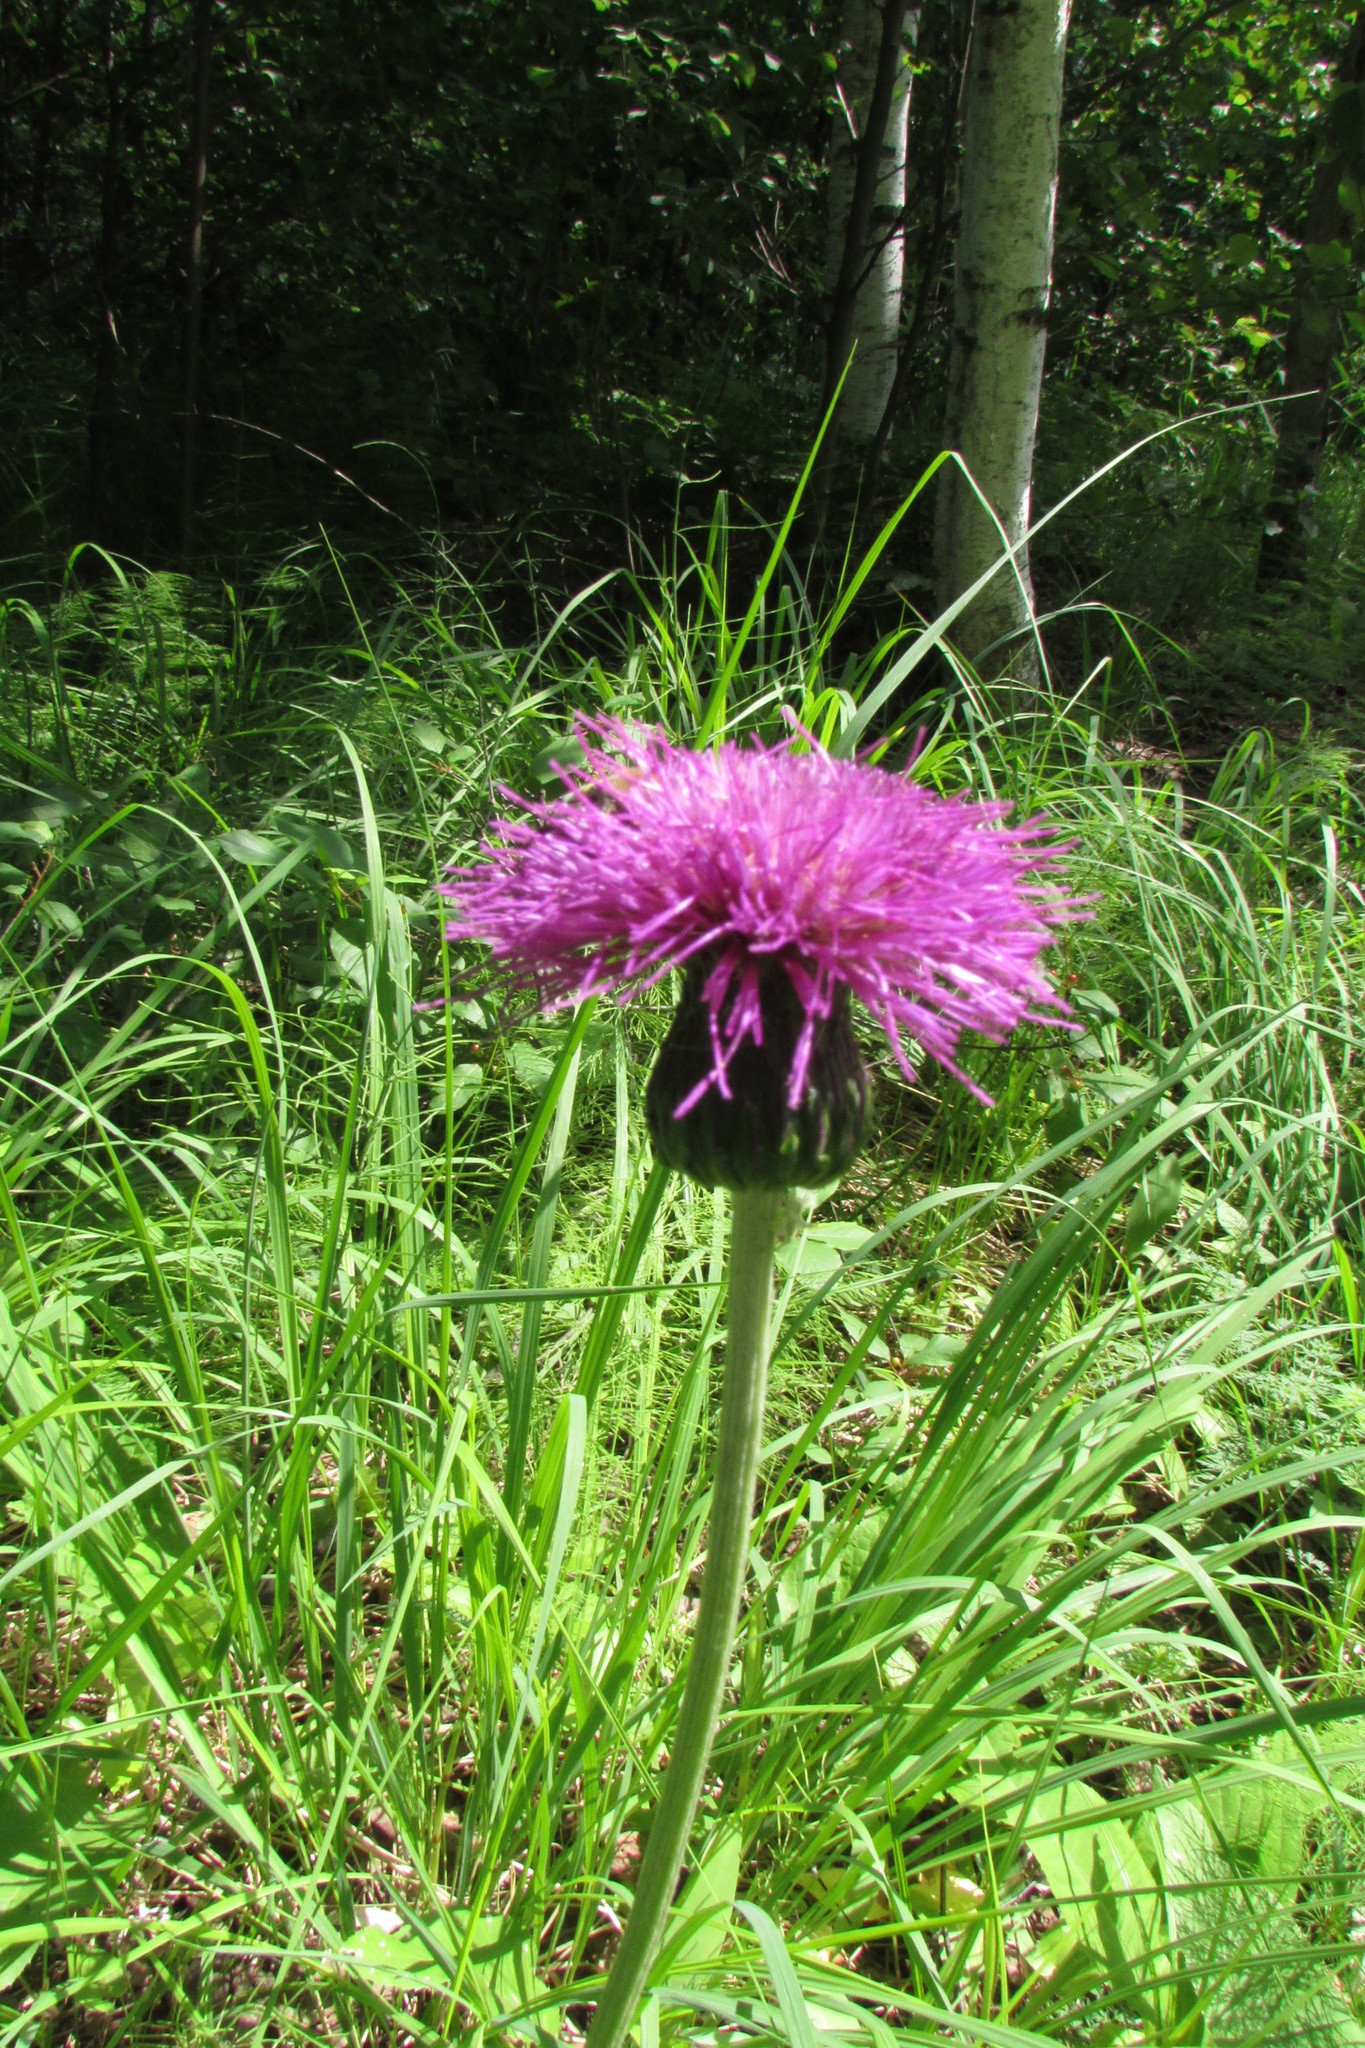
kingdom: Plantae
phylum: Tracheophyta
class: Magnoliopsida
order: Asterales
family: Asteraceae
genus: Cirsium
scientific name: Cirsium heterophyllum
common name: Melancholy thistle
